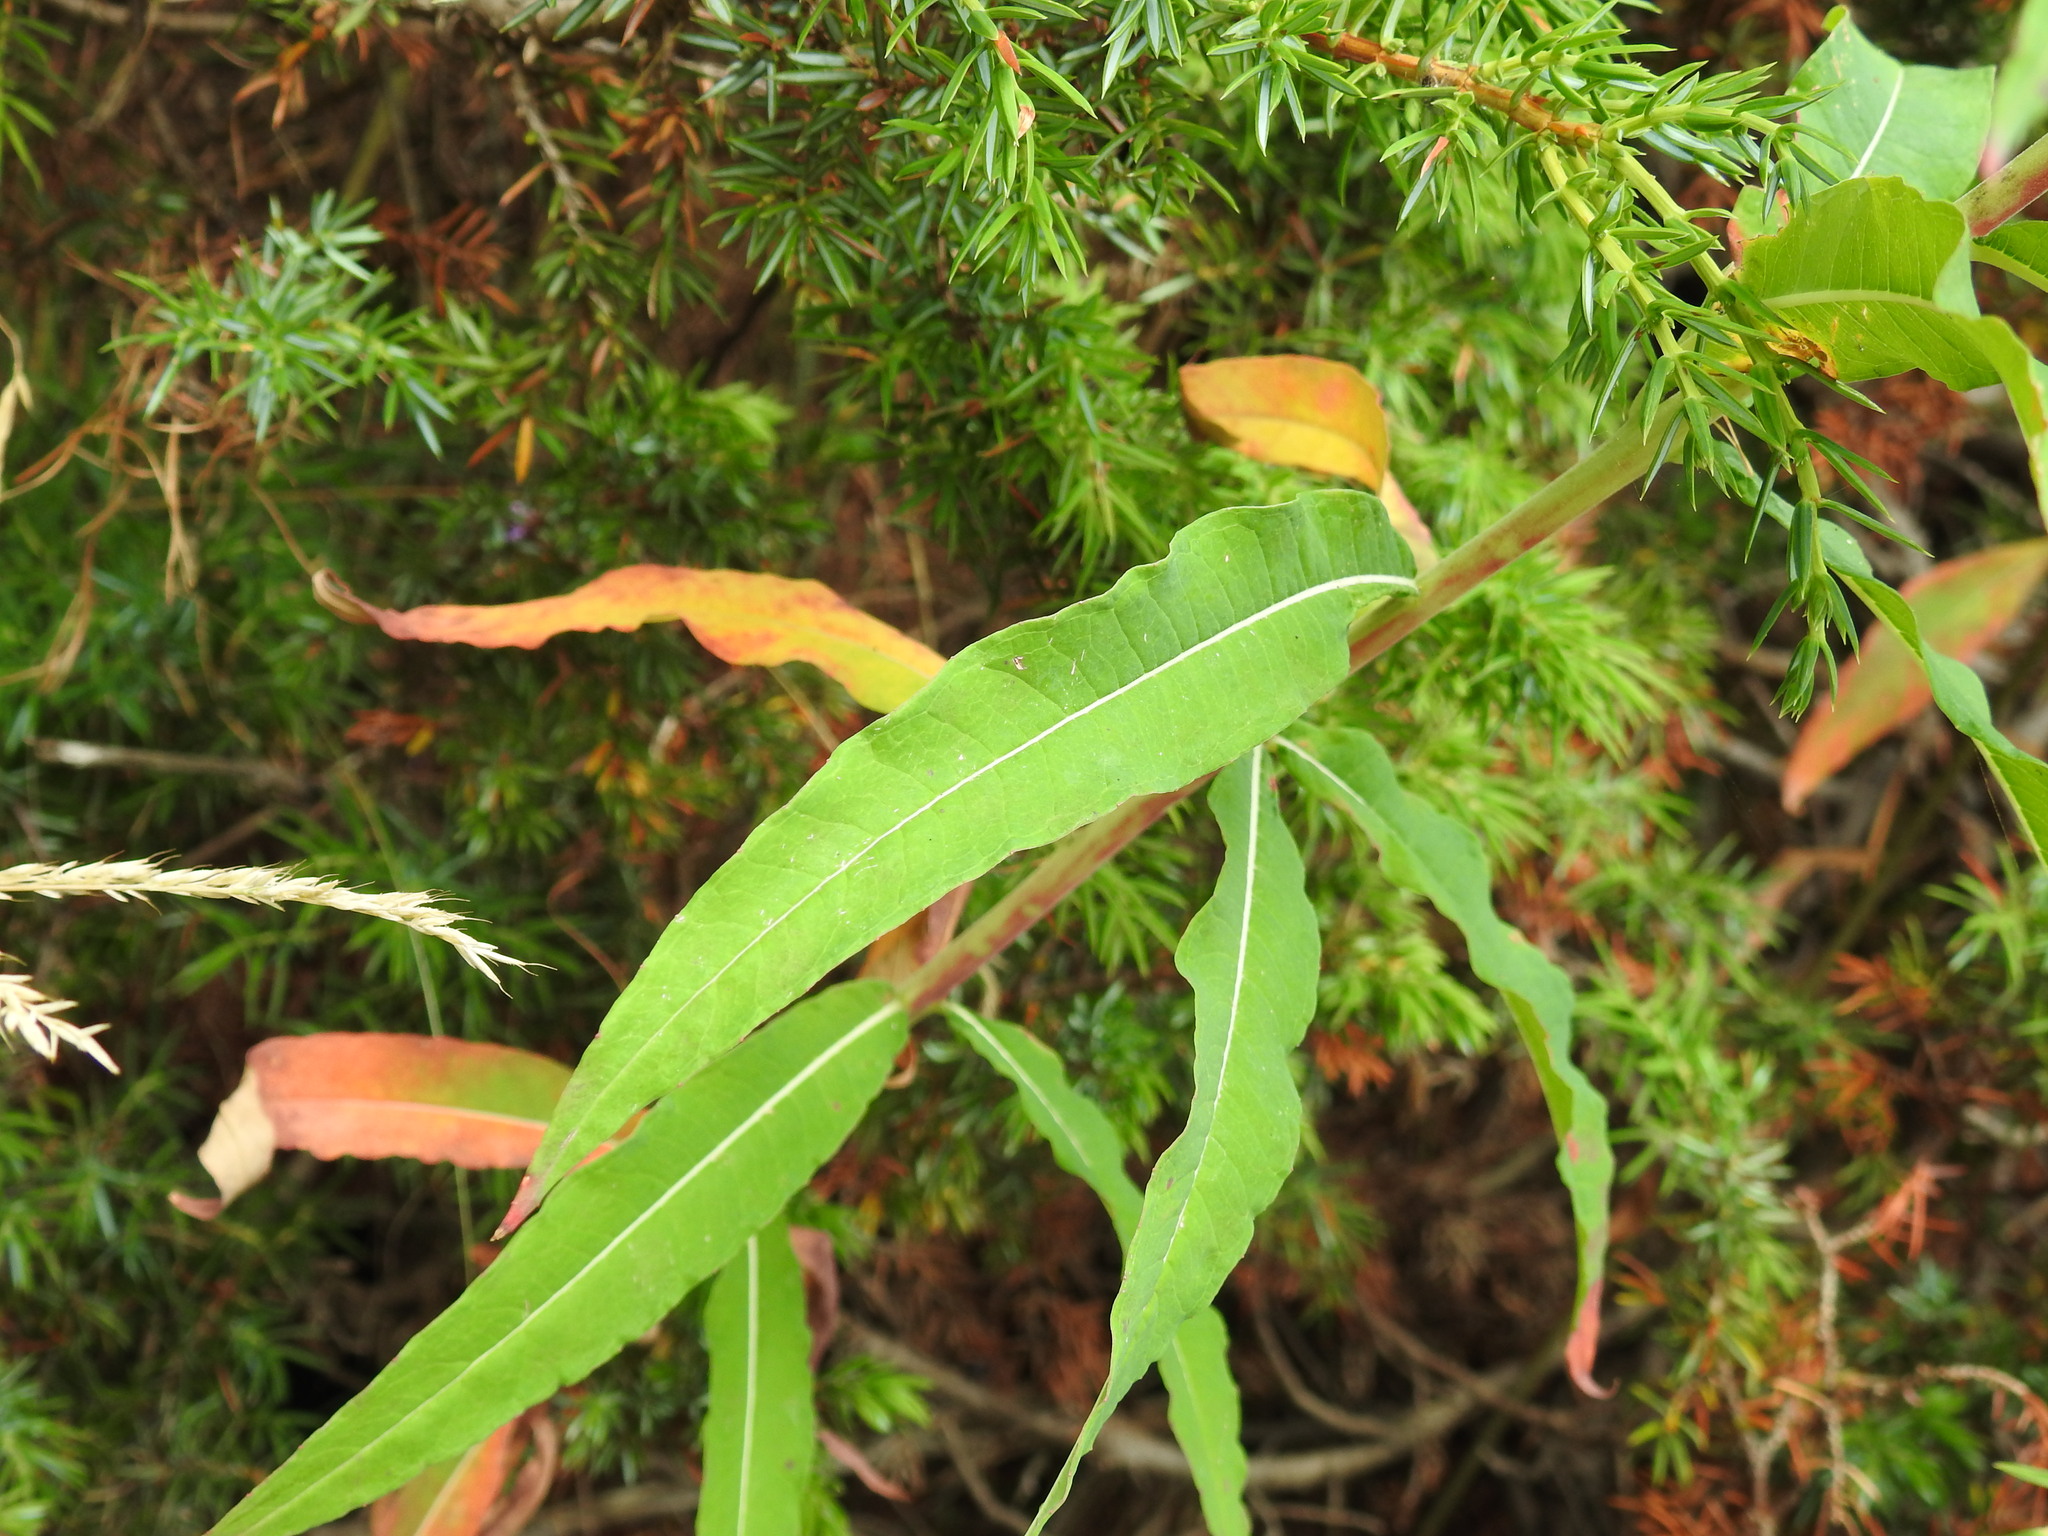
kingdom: Plantae
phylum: Tracheophyta
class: Magnoliopsida
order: Myrtales
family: Onagraceae
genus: Chamaenerion
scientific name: Chamaenerion angustifolium
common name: Fireweed
